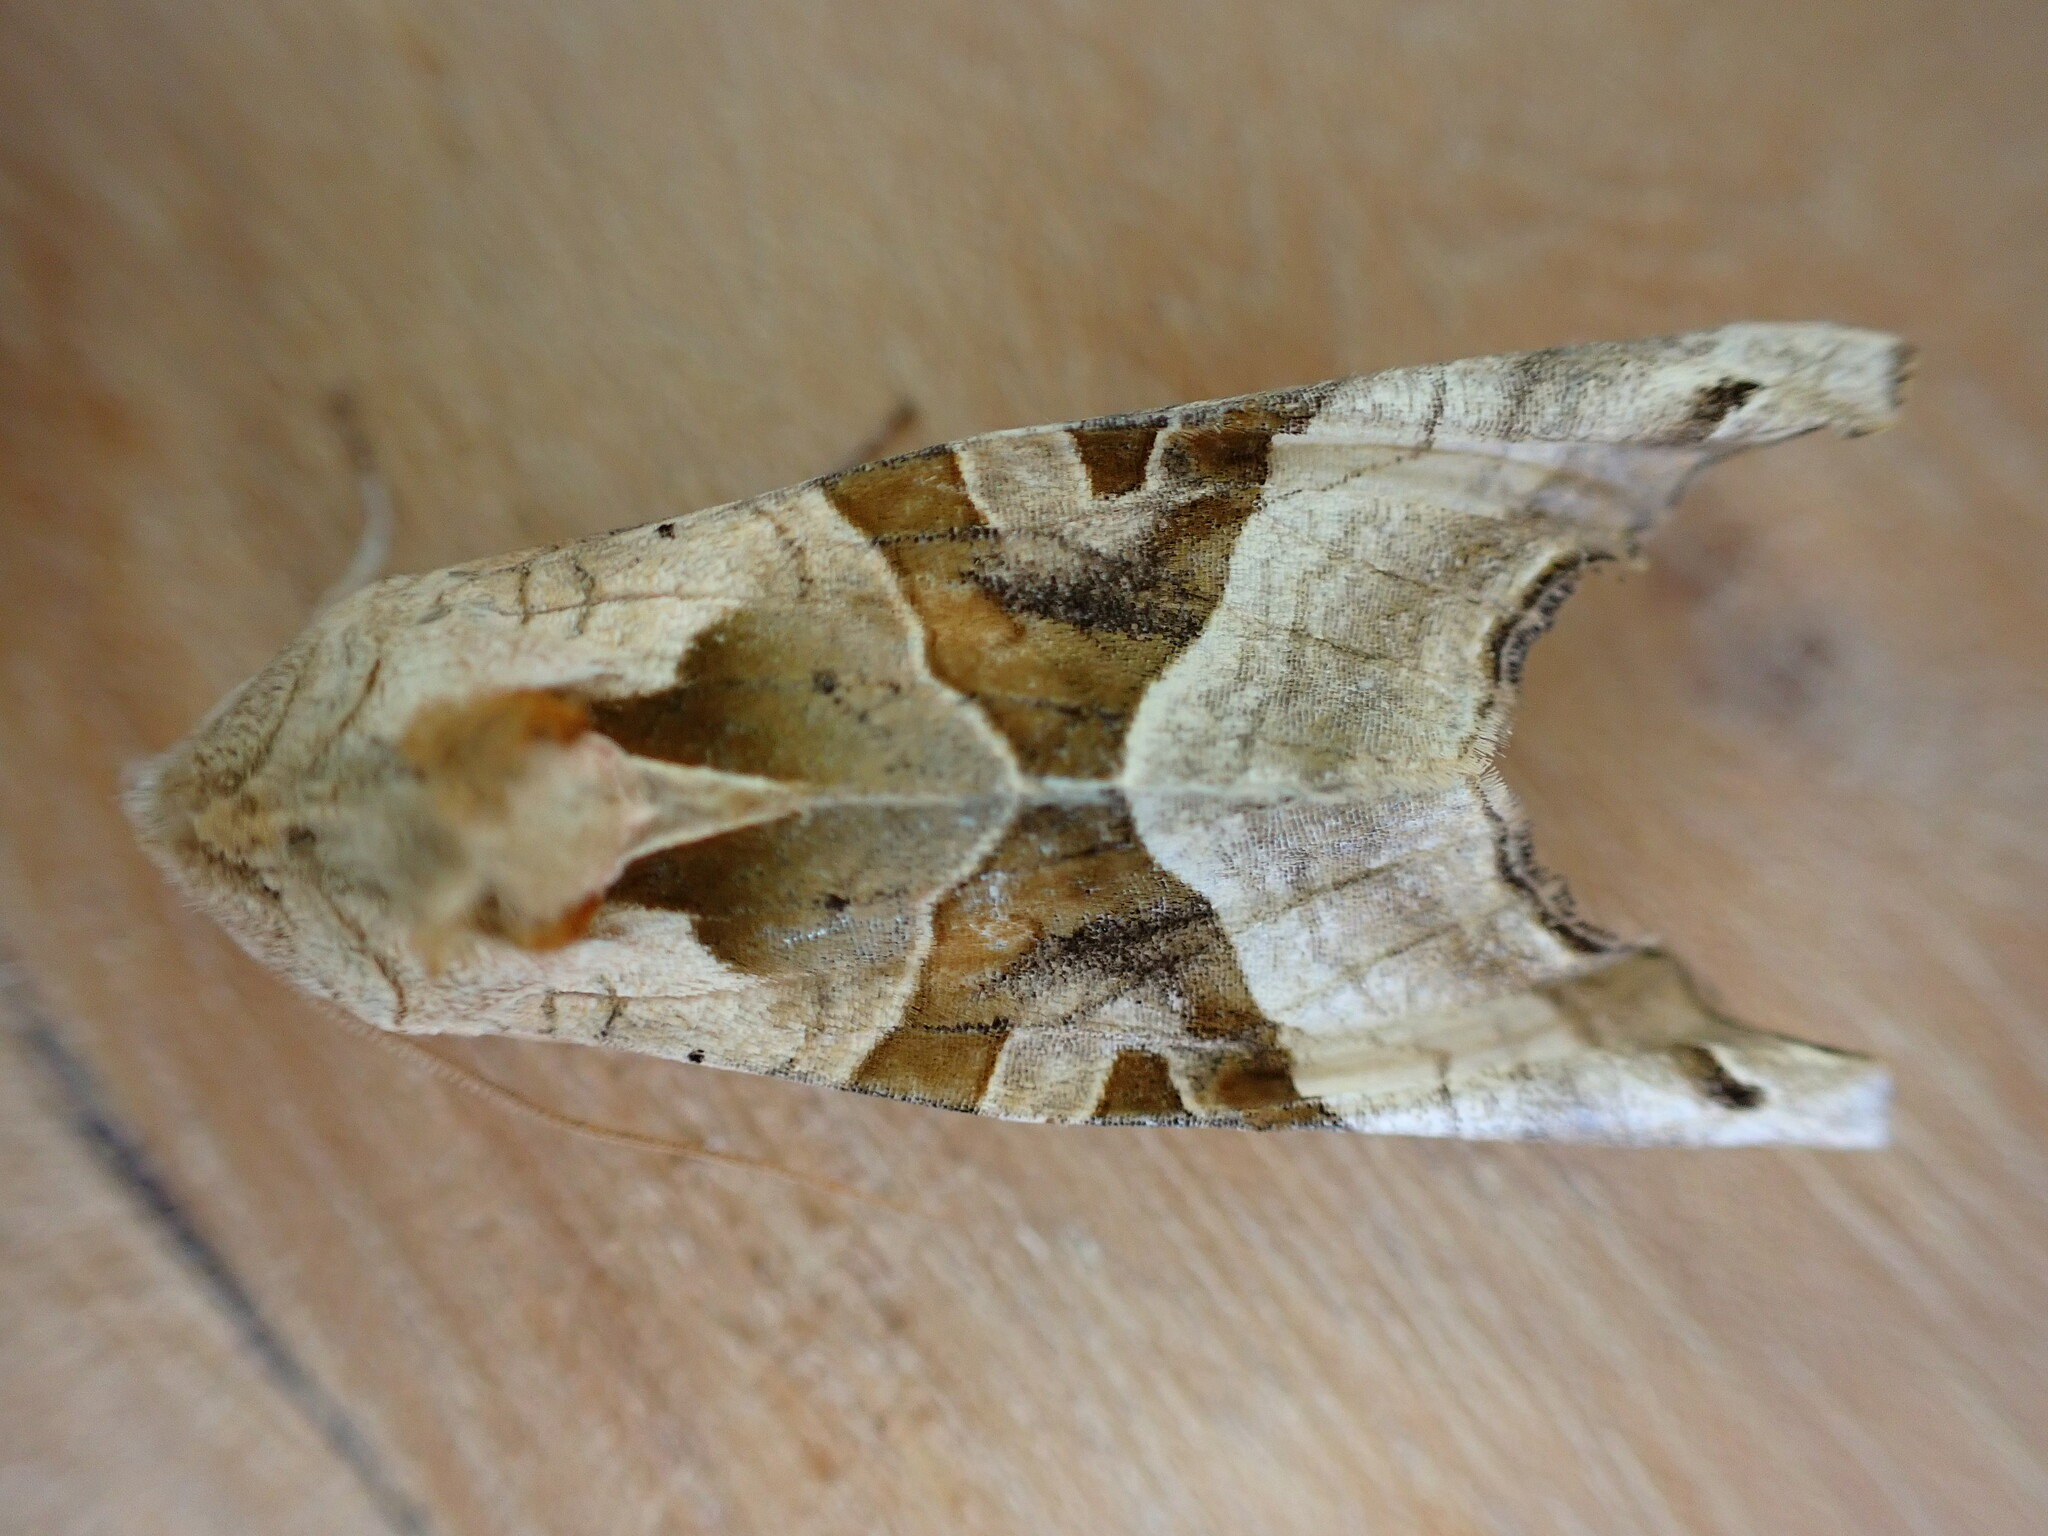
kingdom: Animalia
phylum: Arthropoda
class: Insecta
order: Lepidoptera
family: Noctuidae
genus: Phlogophora
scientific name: Phlogophora meticulosa
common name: Angle shades
